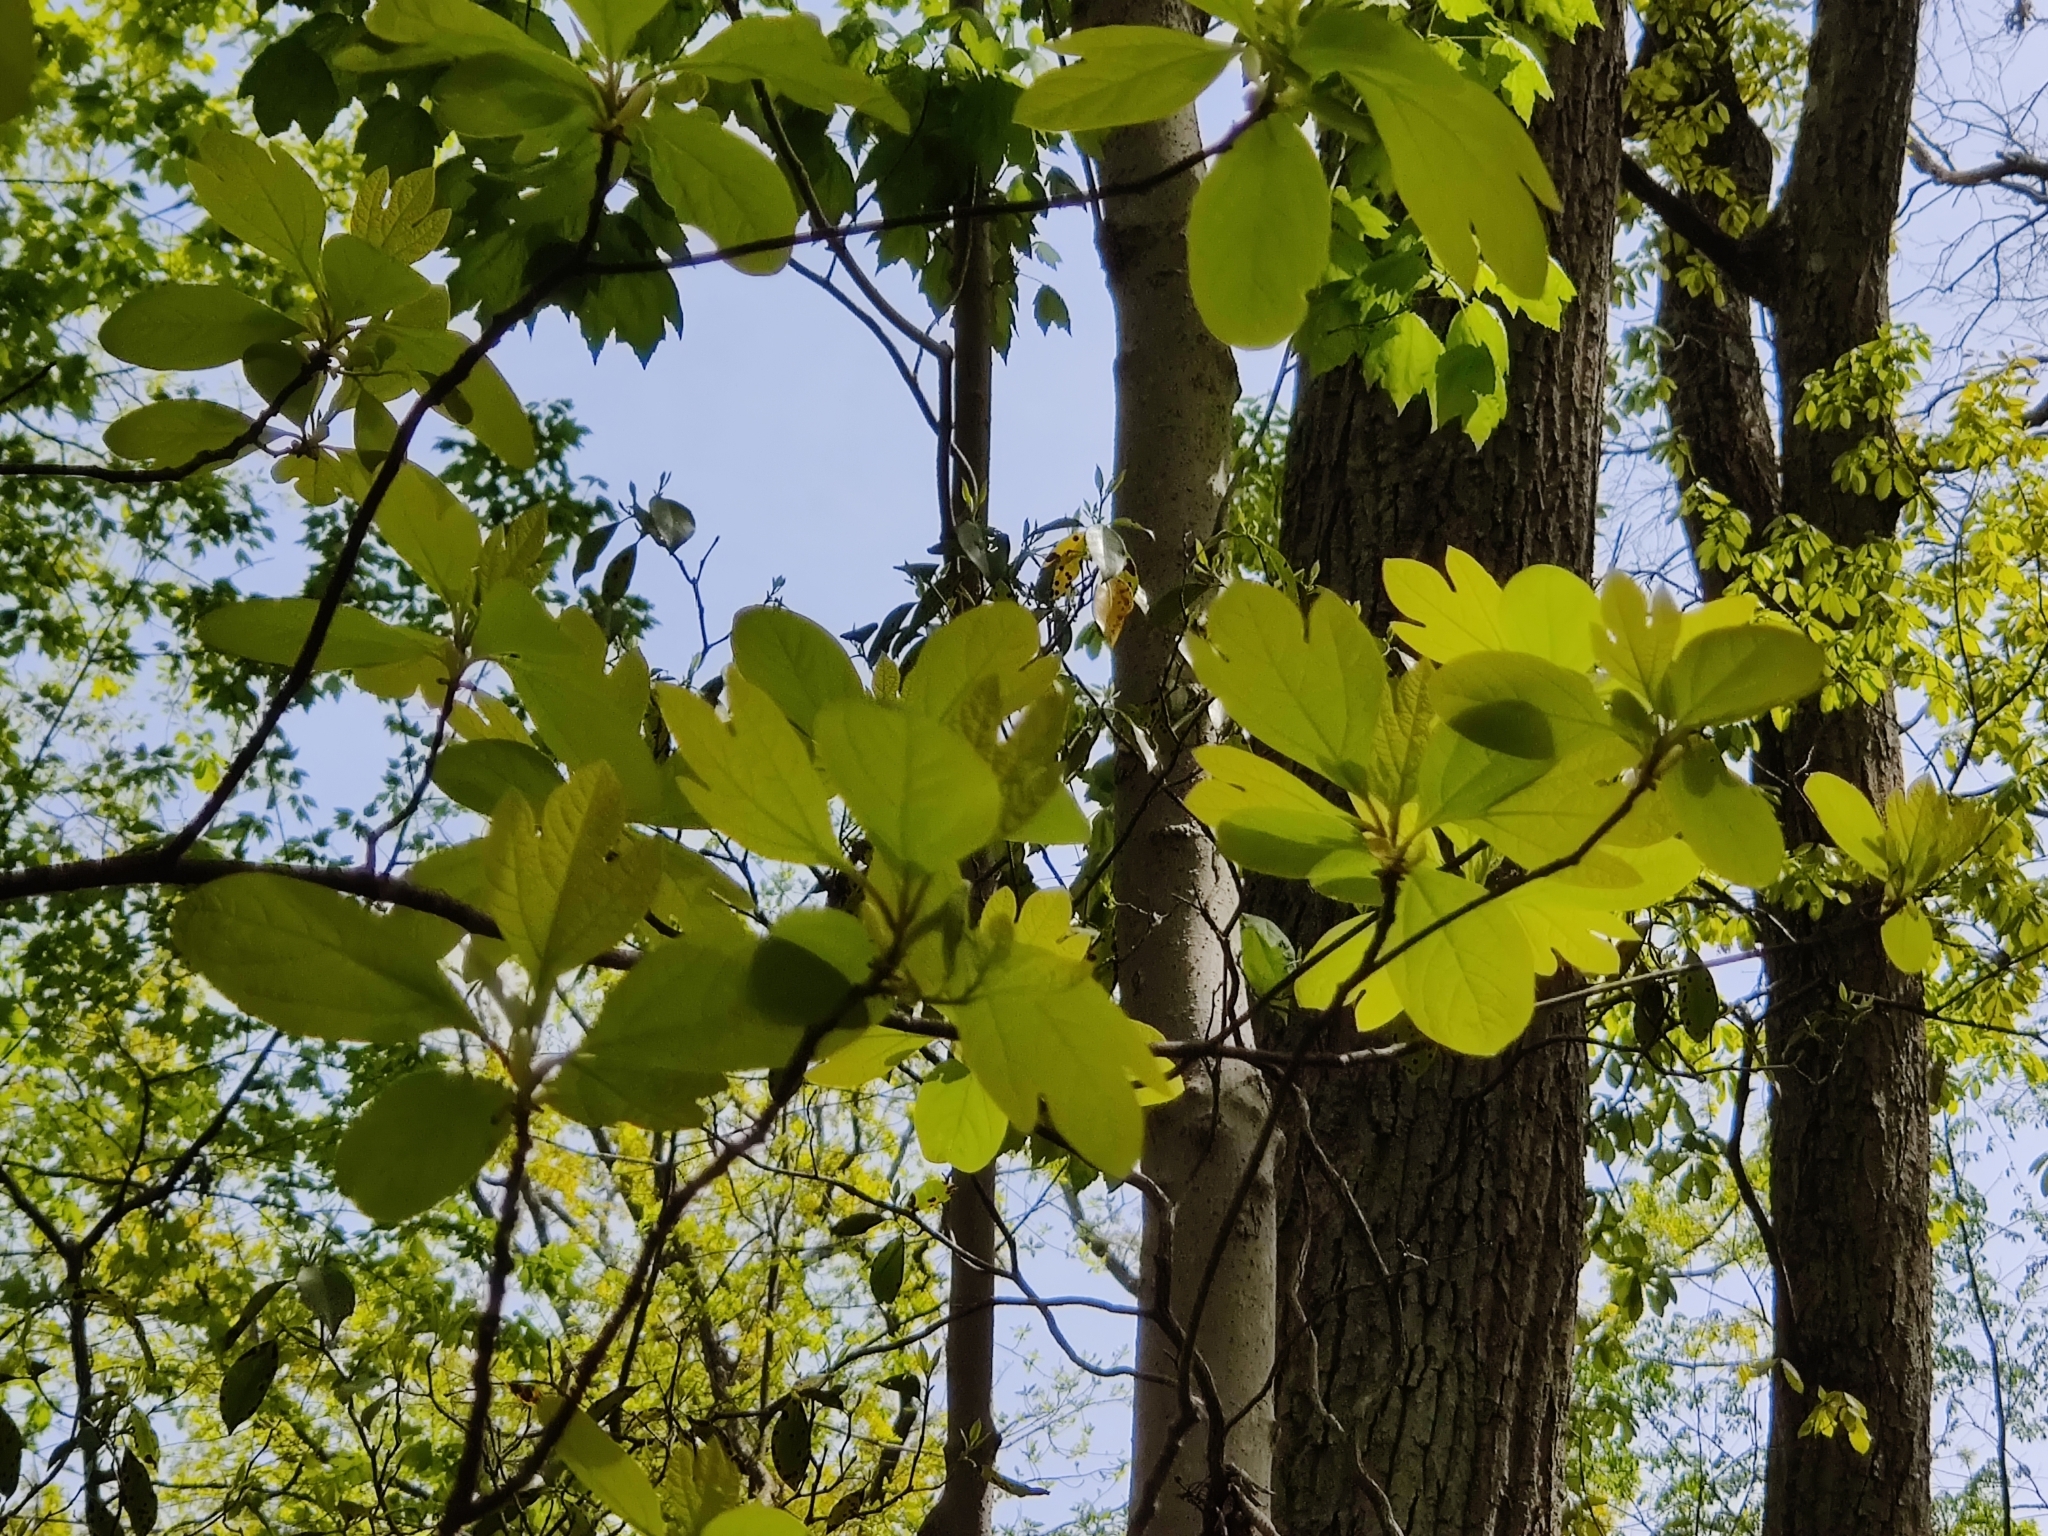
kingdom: Plantae
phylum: Tracheophyta
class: Magnoliopsida
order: Laurales
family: Lauraceae
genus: Sassafras
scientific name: Sassafras albidum
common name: Sassafras
